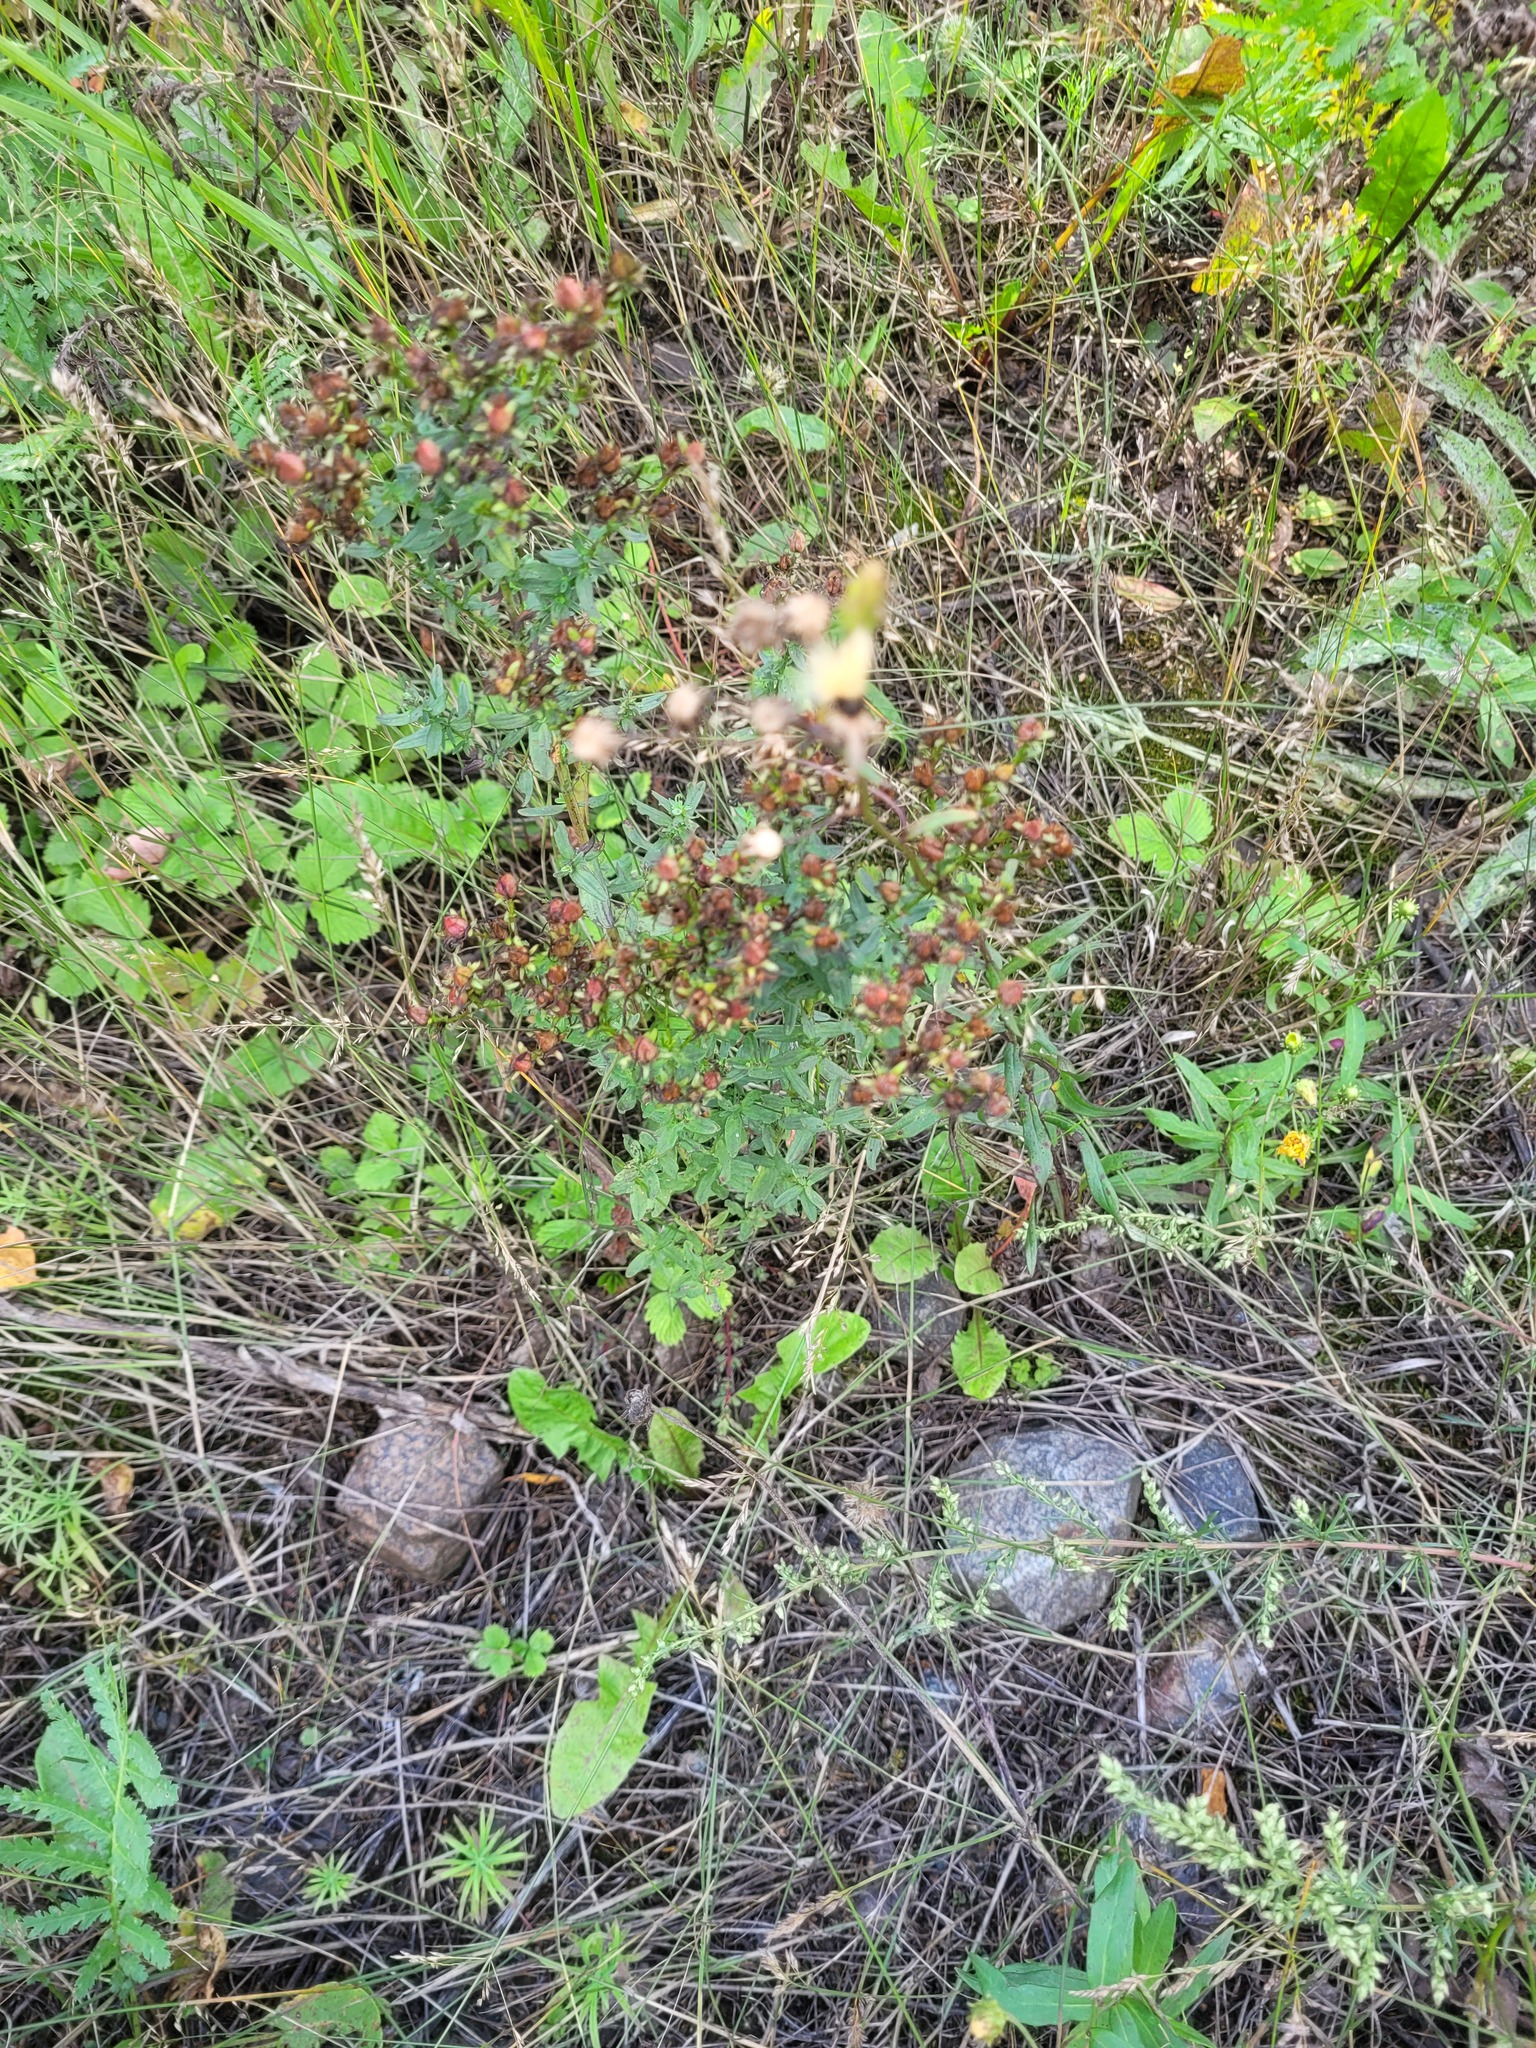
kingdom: Plantae
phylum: Tracheophyta
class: Magnoliopsida
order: Malpighiales
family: Hypericaceae
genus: Hypericum
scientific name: Hypericum perforatum
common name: Common st. johnswort
